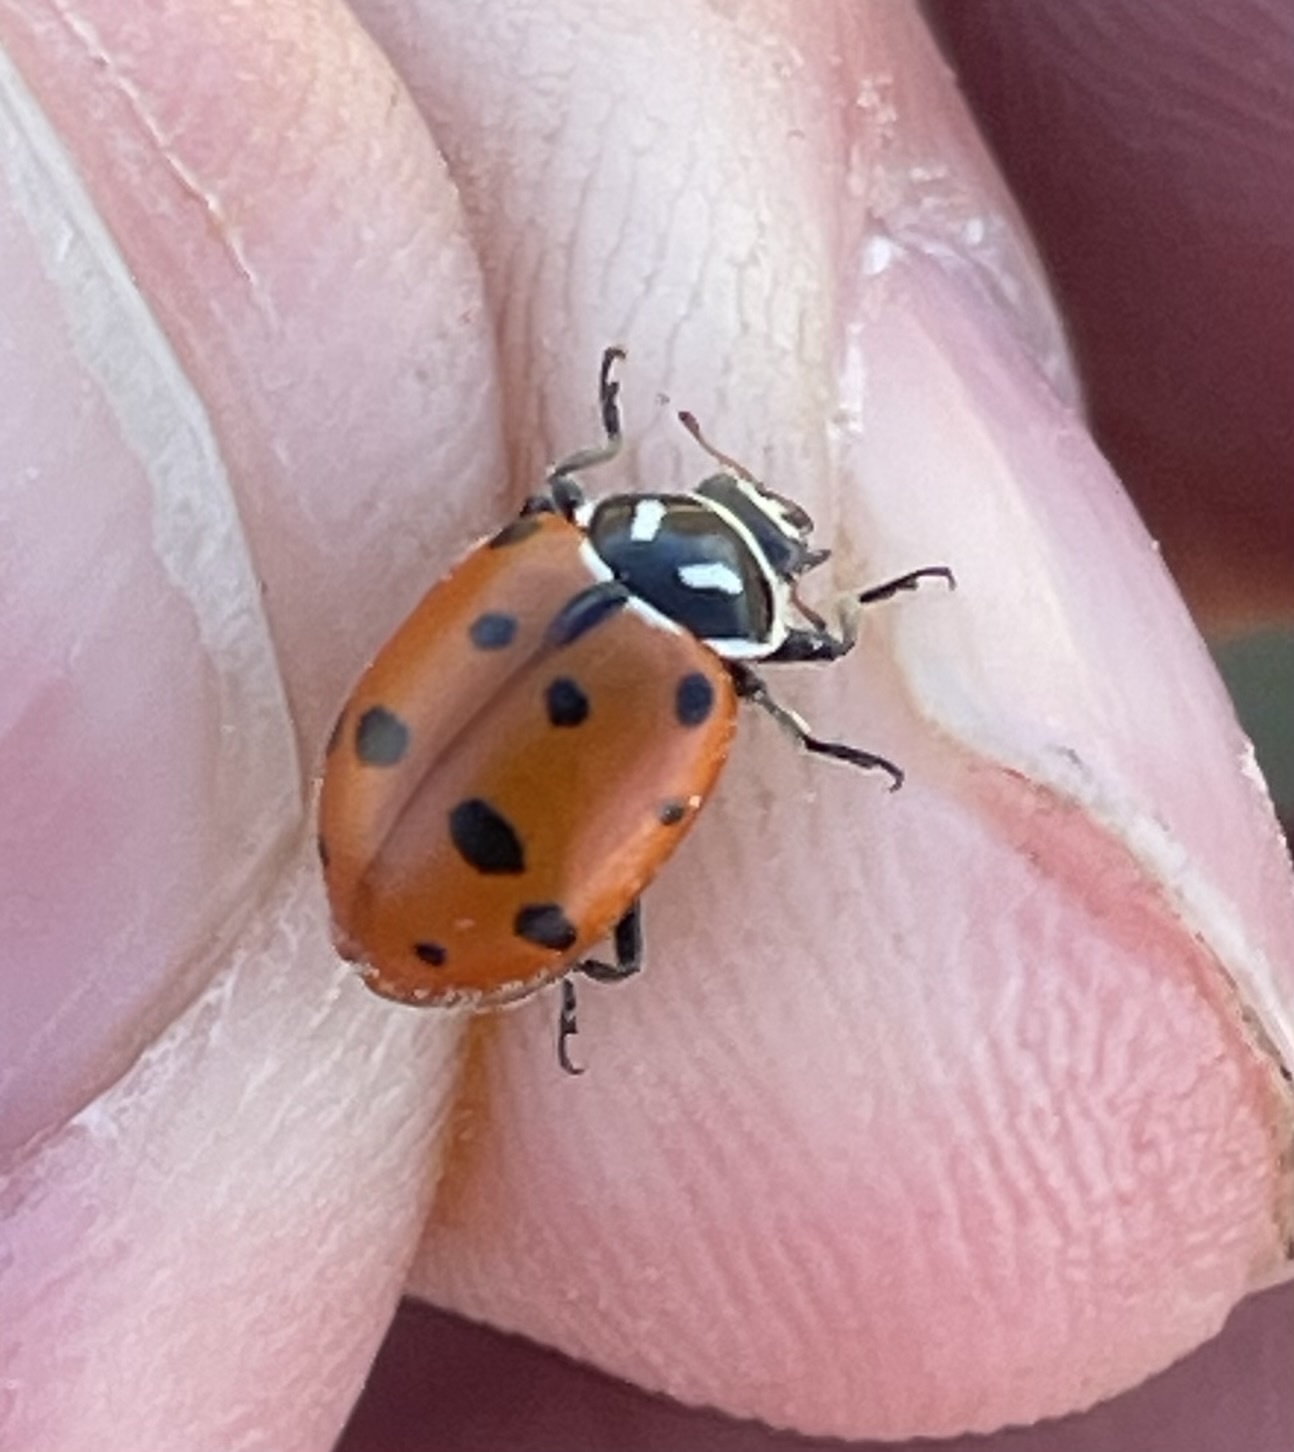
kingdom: Animalia
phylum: Arthropoda
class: Insecta
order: Coleoptera
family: Coccinellidae
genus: Hippodamia
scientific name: Hippodamia convergens
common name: Convergent lady beetle
